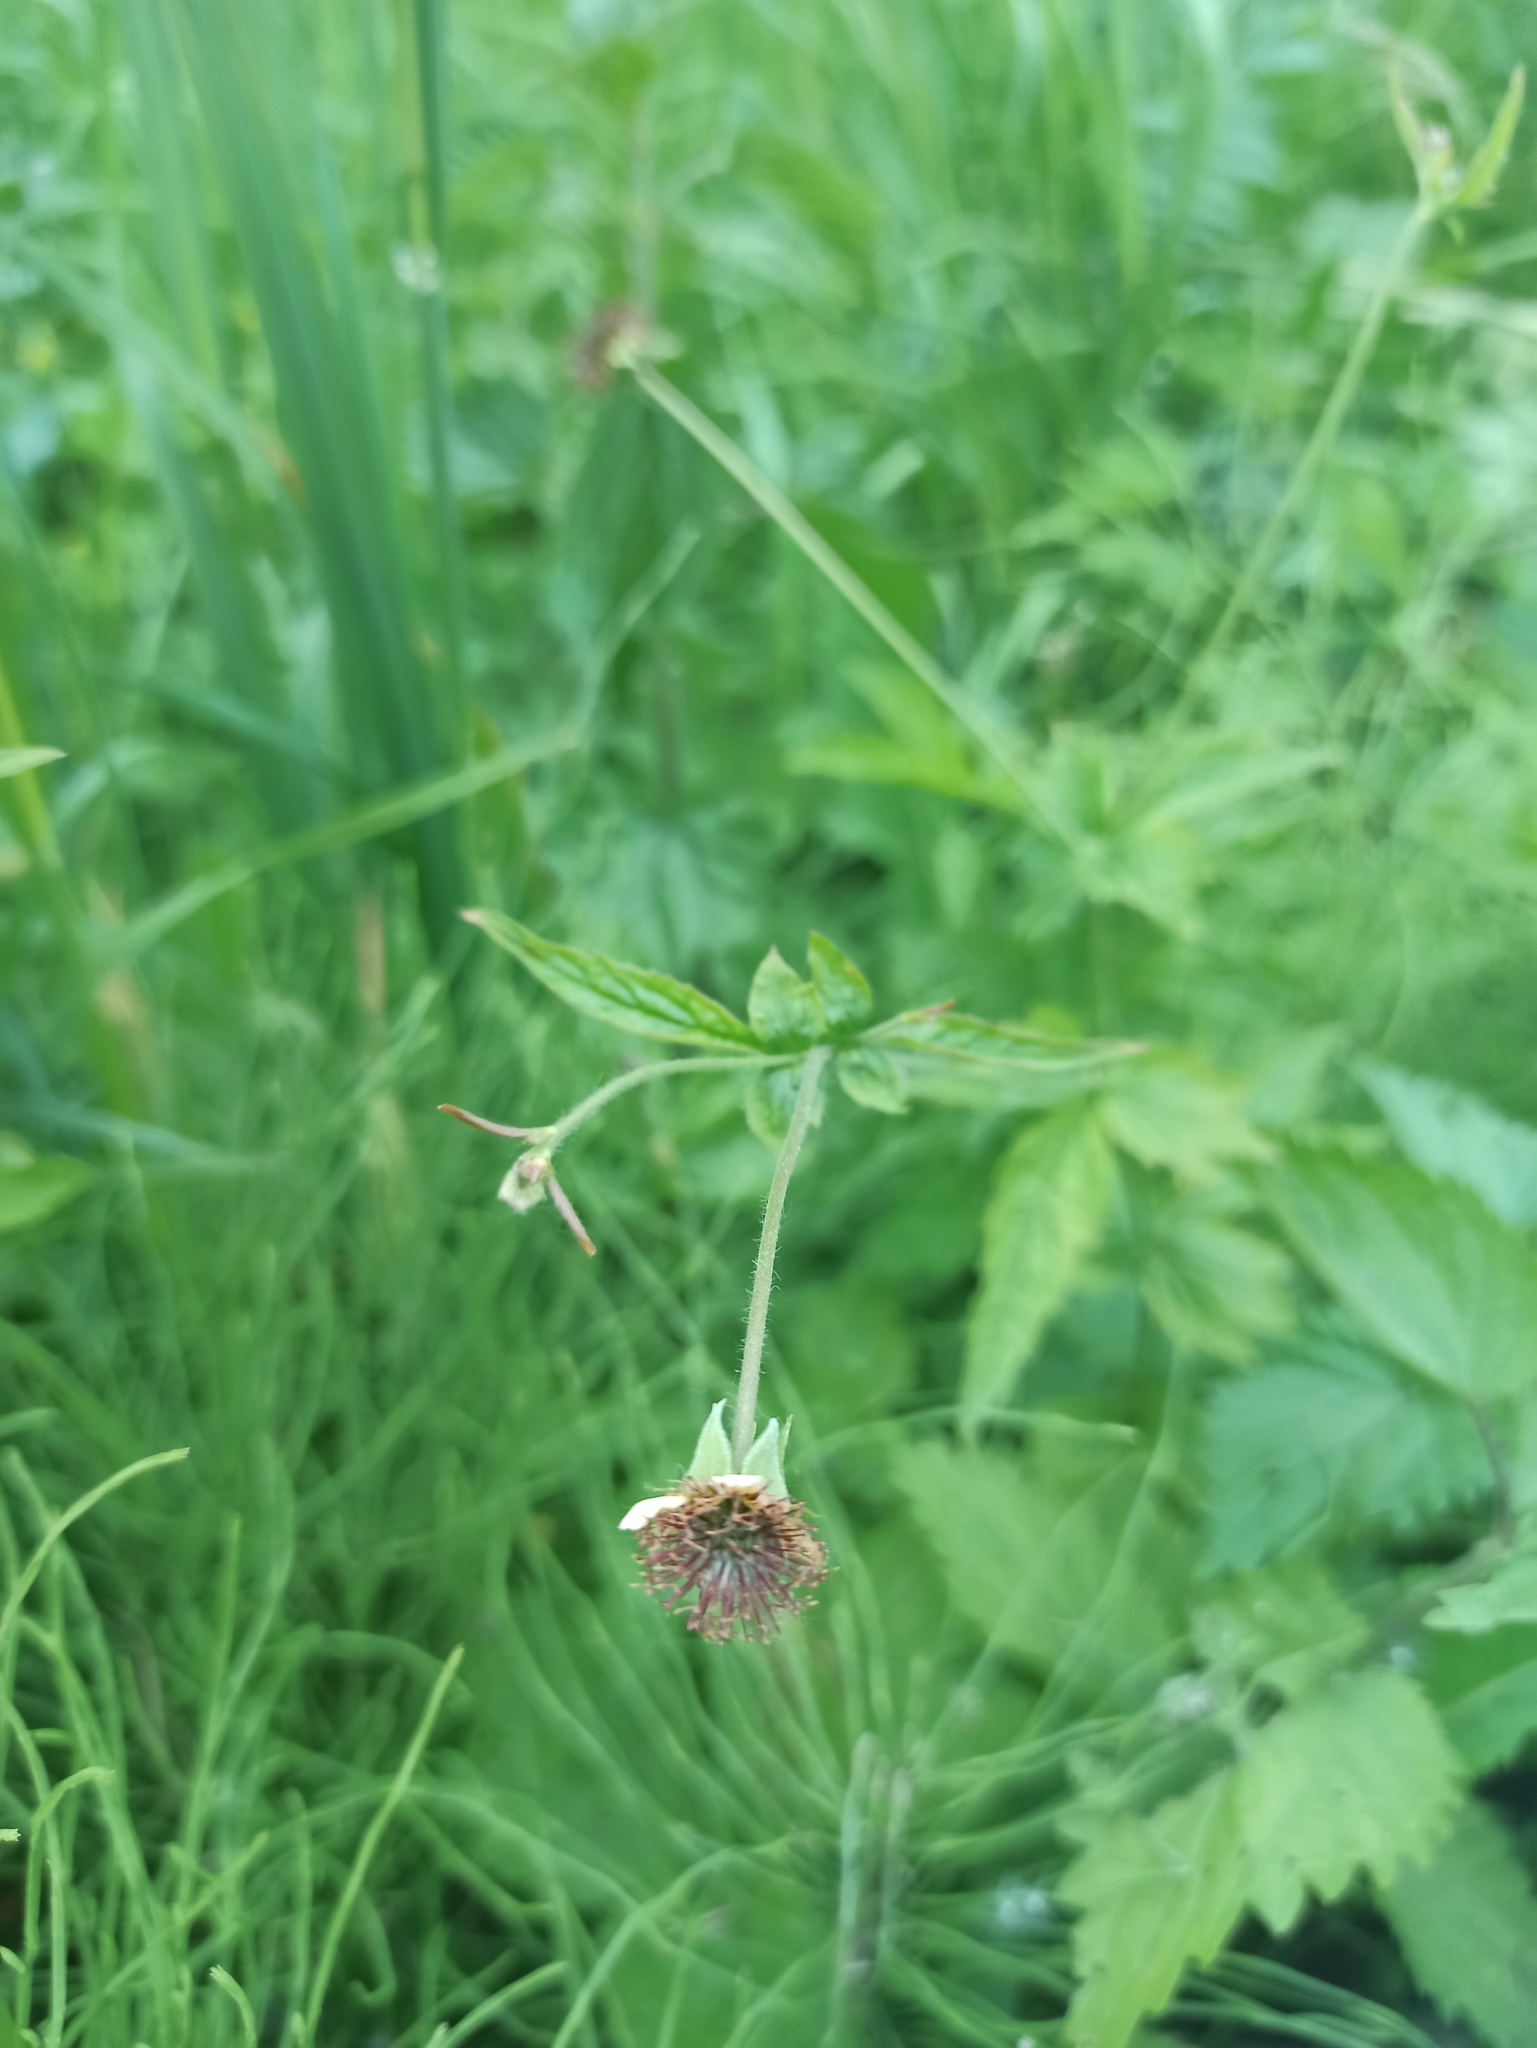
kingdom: Plantae
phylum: Tracheophyta
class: Magnoliopsida
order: Rosales
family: Rosaceae
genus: Geum
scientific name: Geum urbanum
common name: Wood avens
